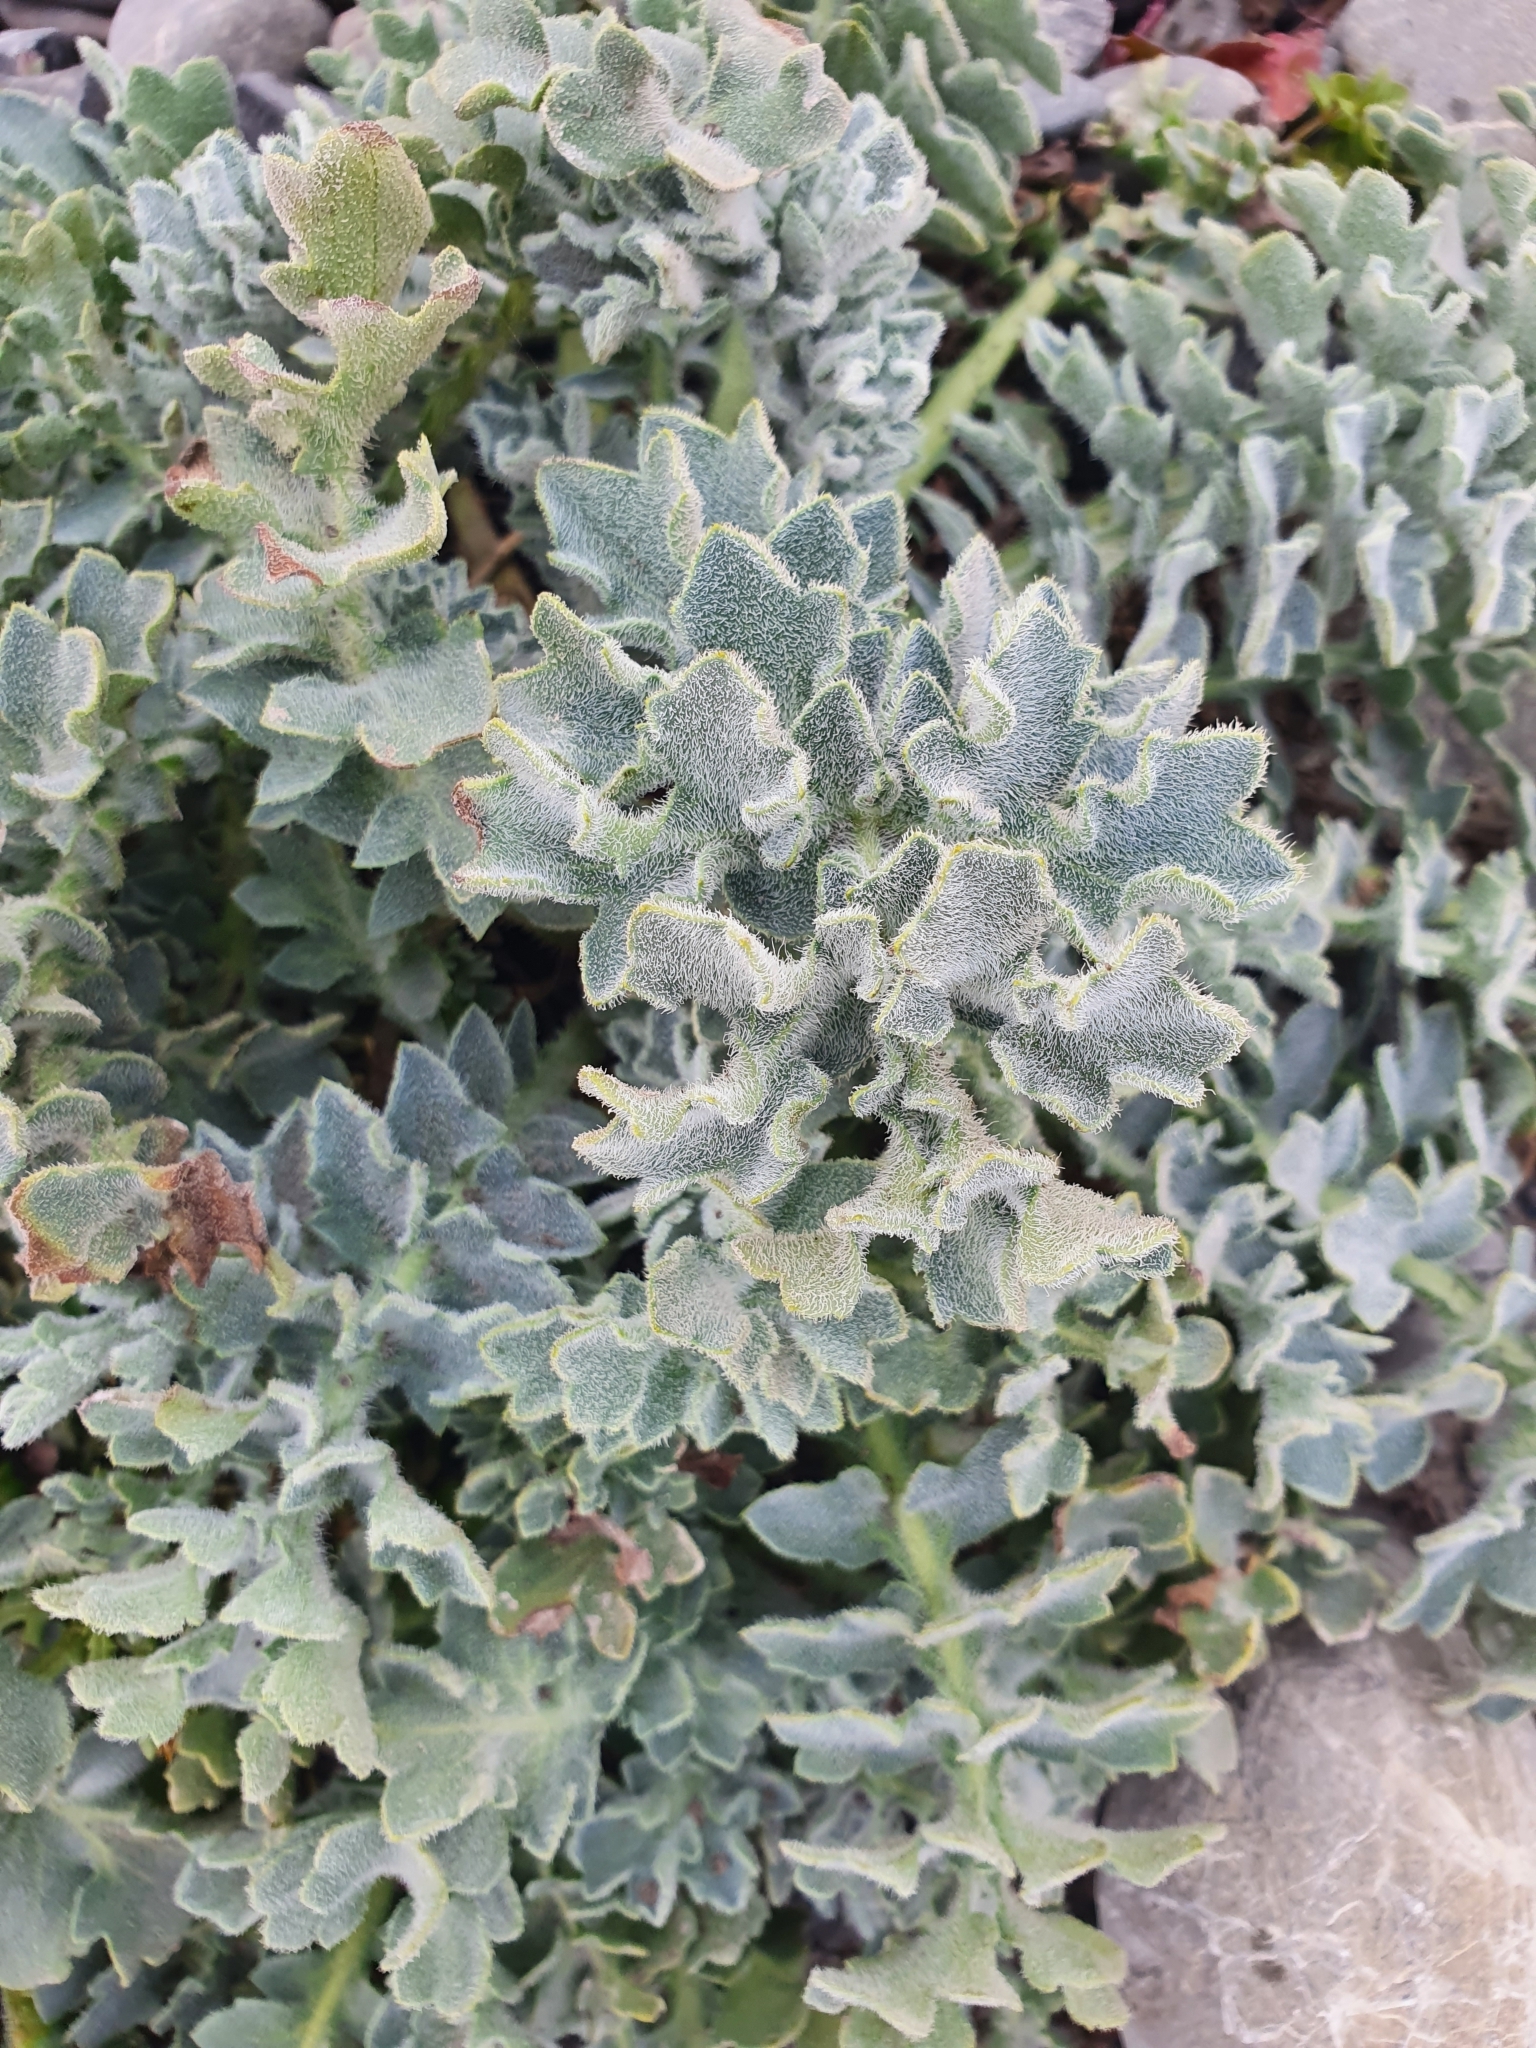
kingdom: Plantae
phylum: Tracheophyta
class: Magnoliopsida
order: Ranunculales
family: Papaveraceae
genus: Glaucium
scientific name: Glaucium flavum
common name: Yellow horned-poppy
